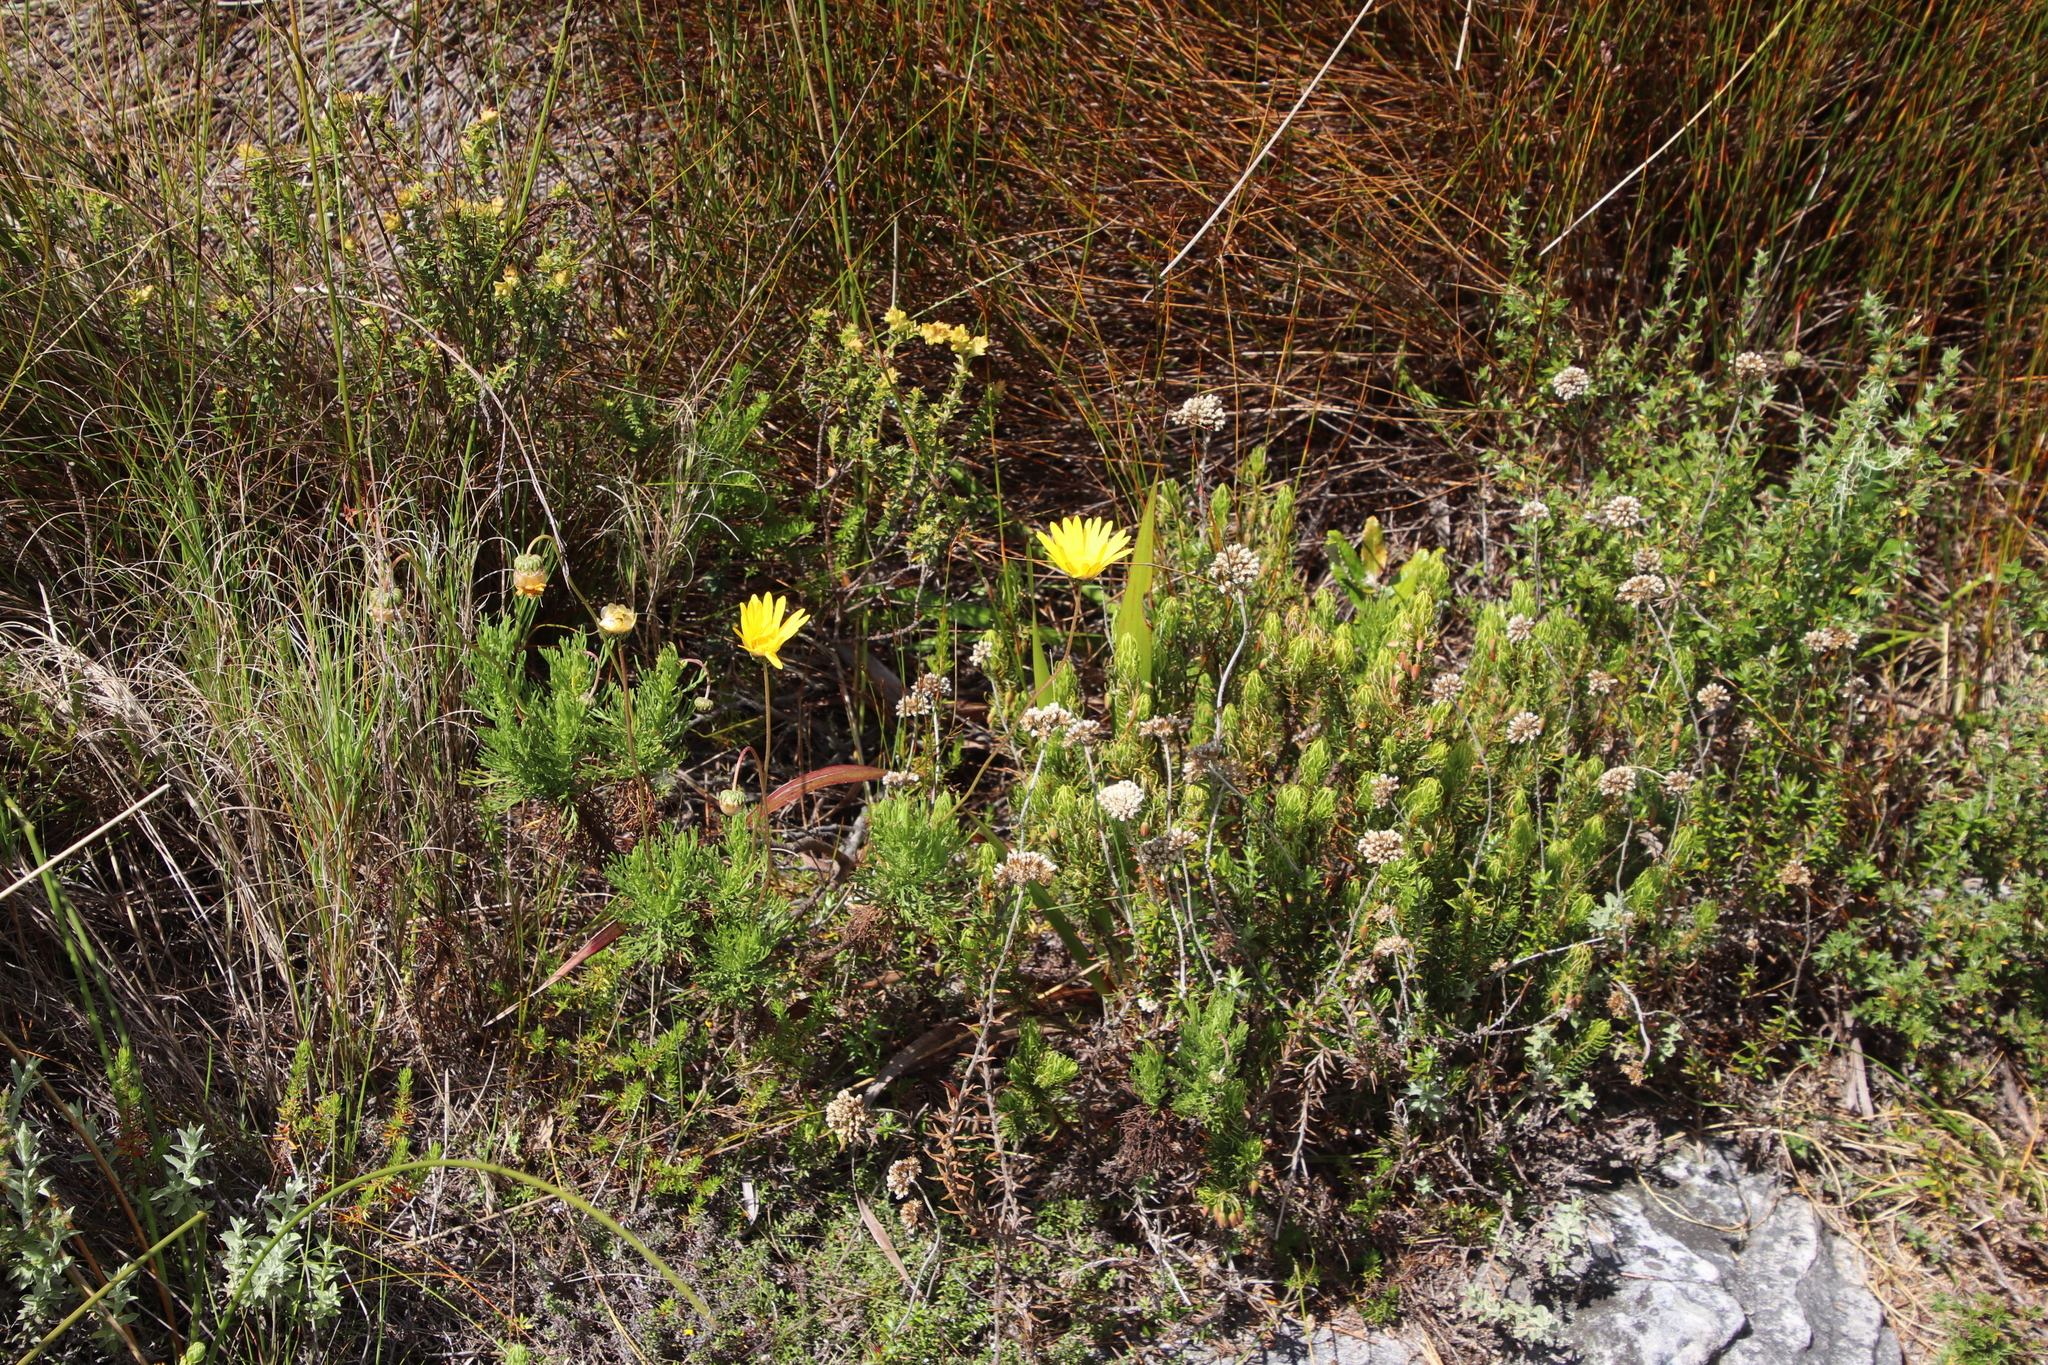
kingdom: Plantae
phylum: Tracheophyta
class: Magnoliopsida
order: Asterales
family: Asteraceae
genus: Anaxeton
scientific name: Anaxeton arborescens
